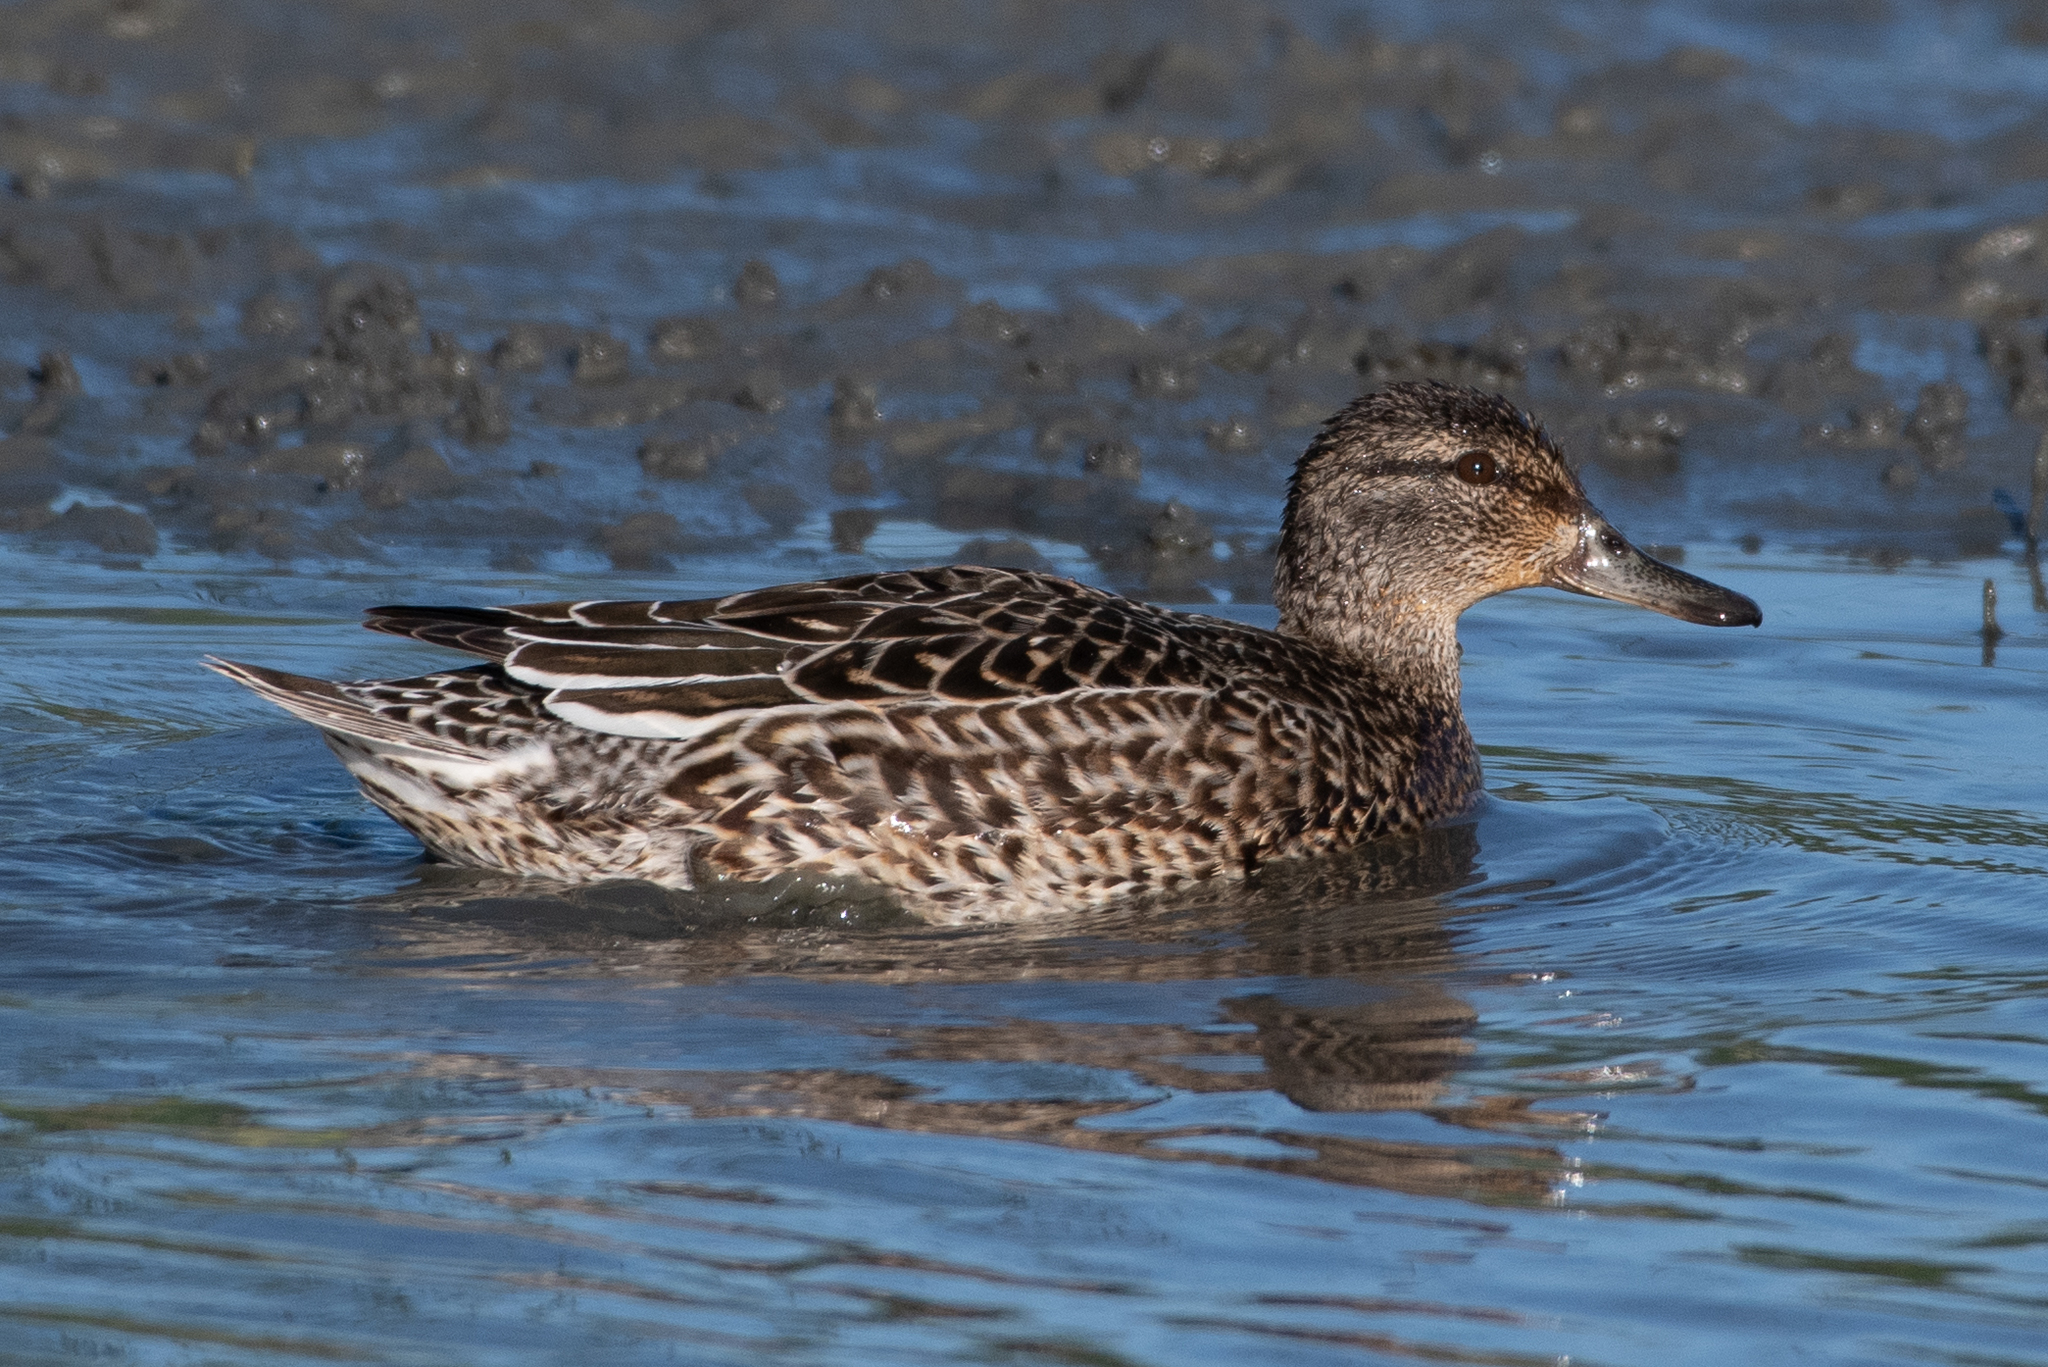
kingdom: Animalia
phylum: Chordata
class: Aves
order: Anseriformes
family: Anatidae
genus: Anas
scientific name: Anas crecca
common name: Eurasian teal
